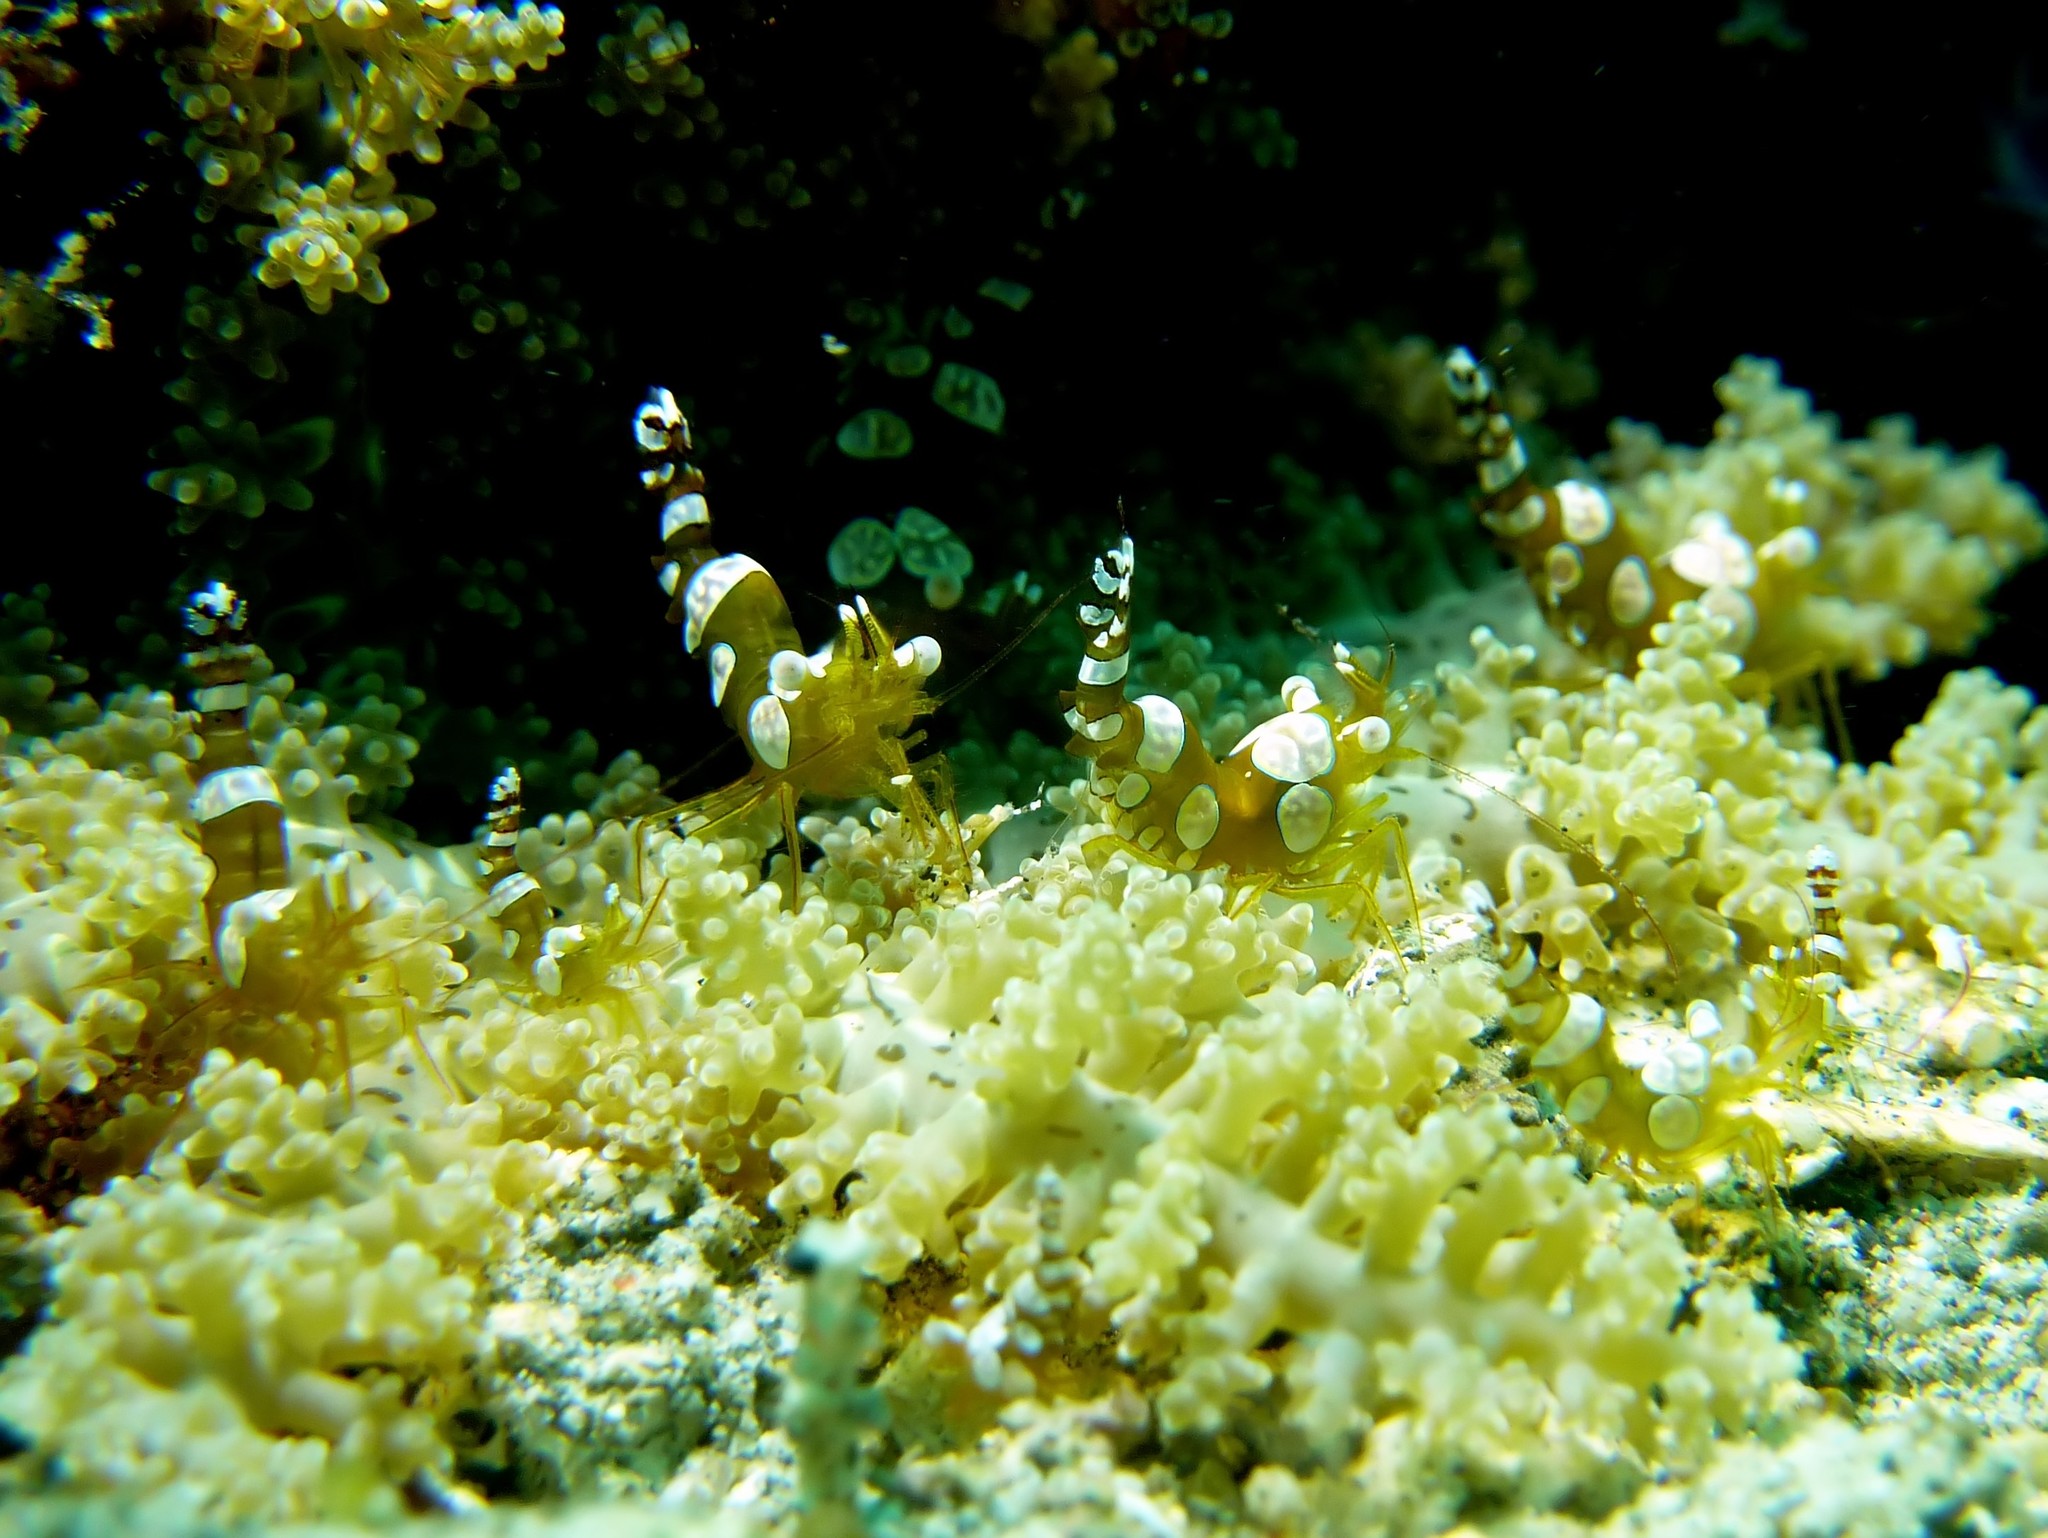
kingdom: Animalia
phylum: Arthropoda
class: Malacostraca
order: Decapoda
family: Thoridae
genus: Thor
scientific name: Thor amboinensis
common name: Squat anemone shrimp
